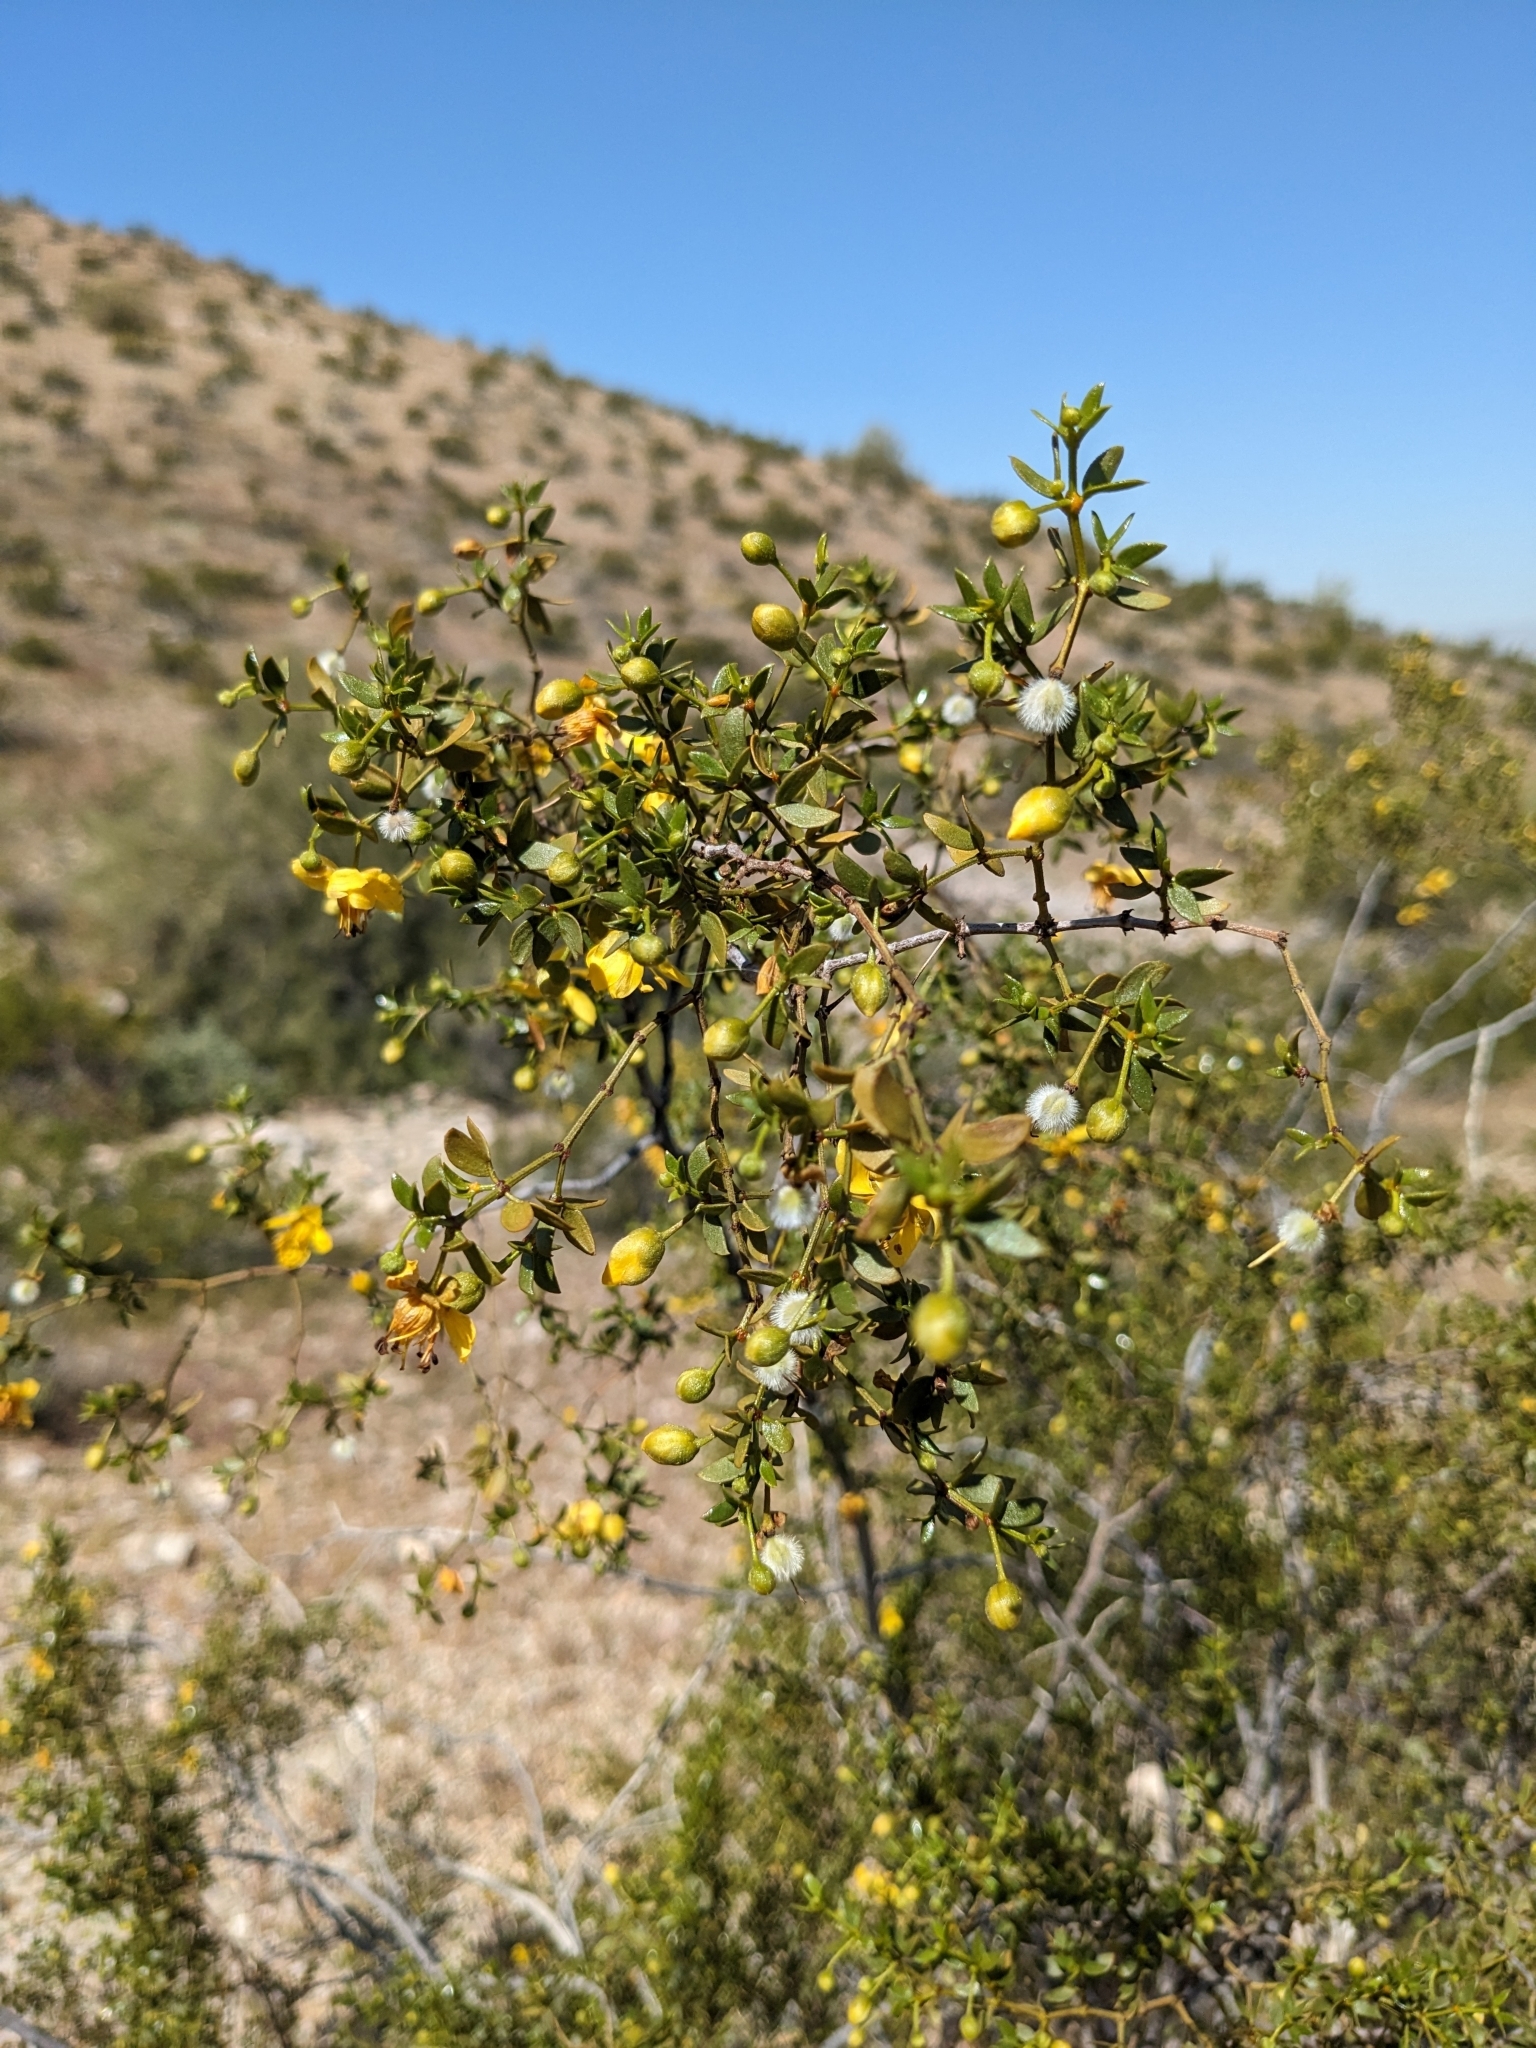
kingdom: Plantae
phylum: Tracheophyta
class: Magnoliopsida
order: Zygophyllales
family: Zygophyllaceae
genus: Larrea
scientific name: Larrea tridentata
